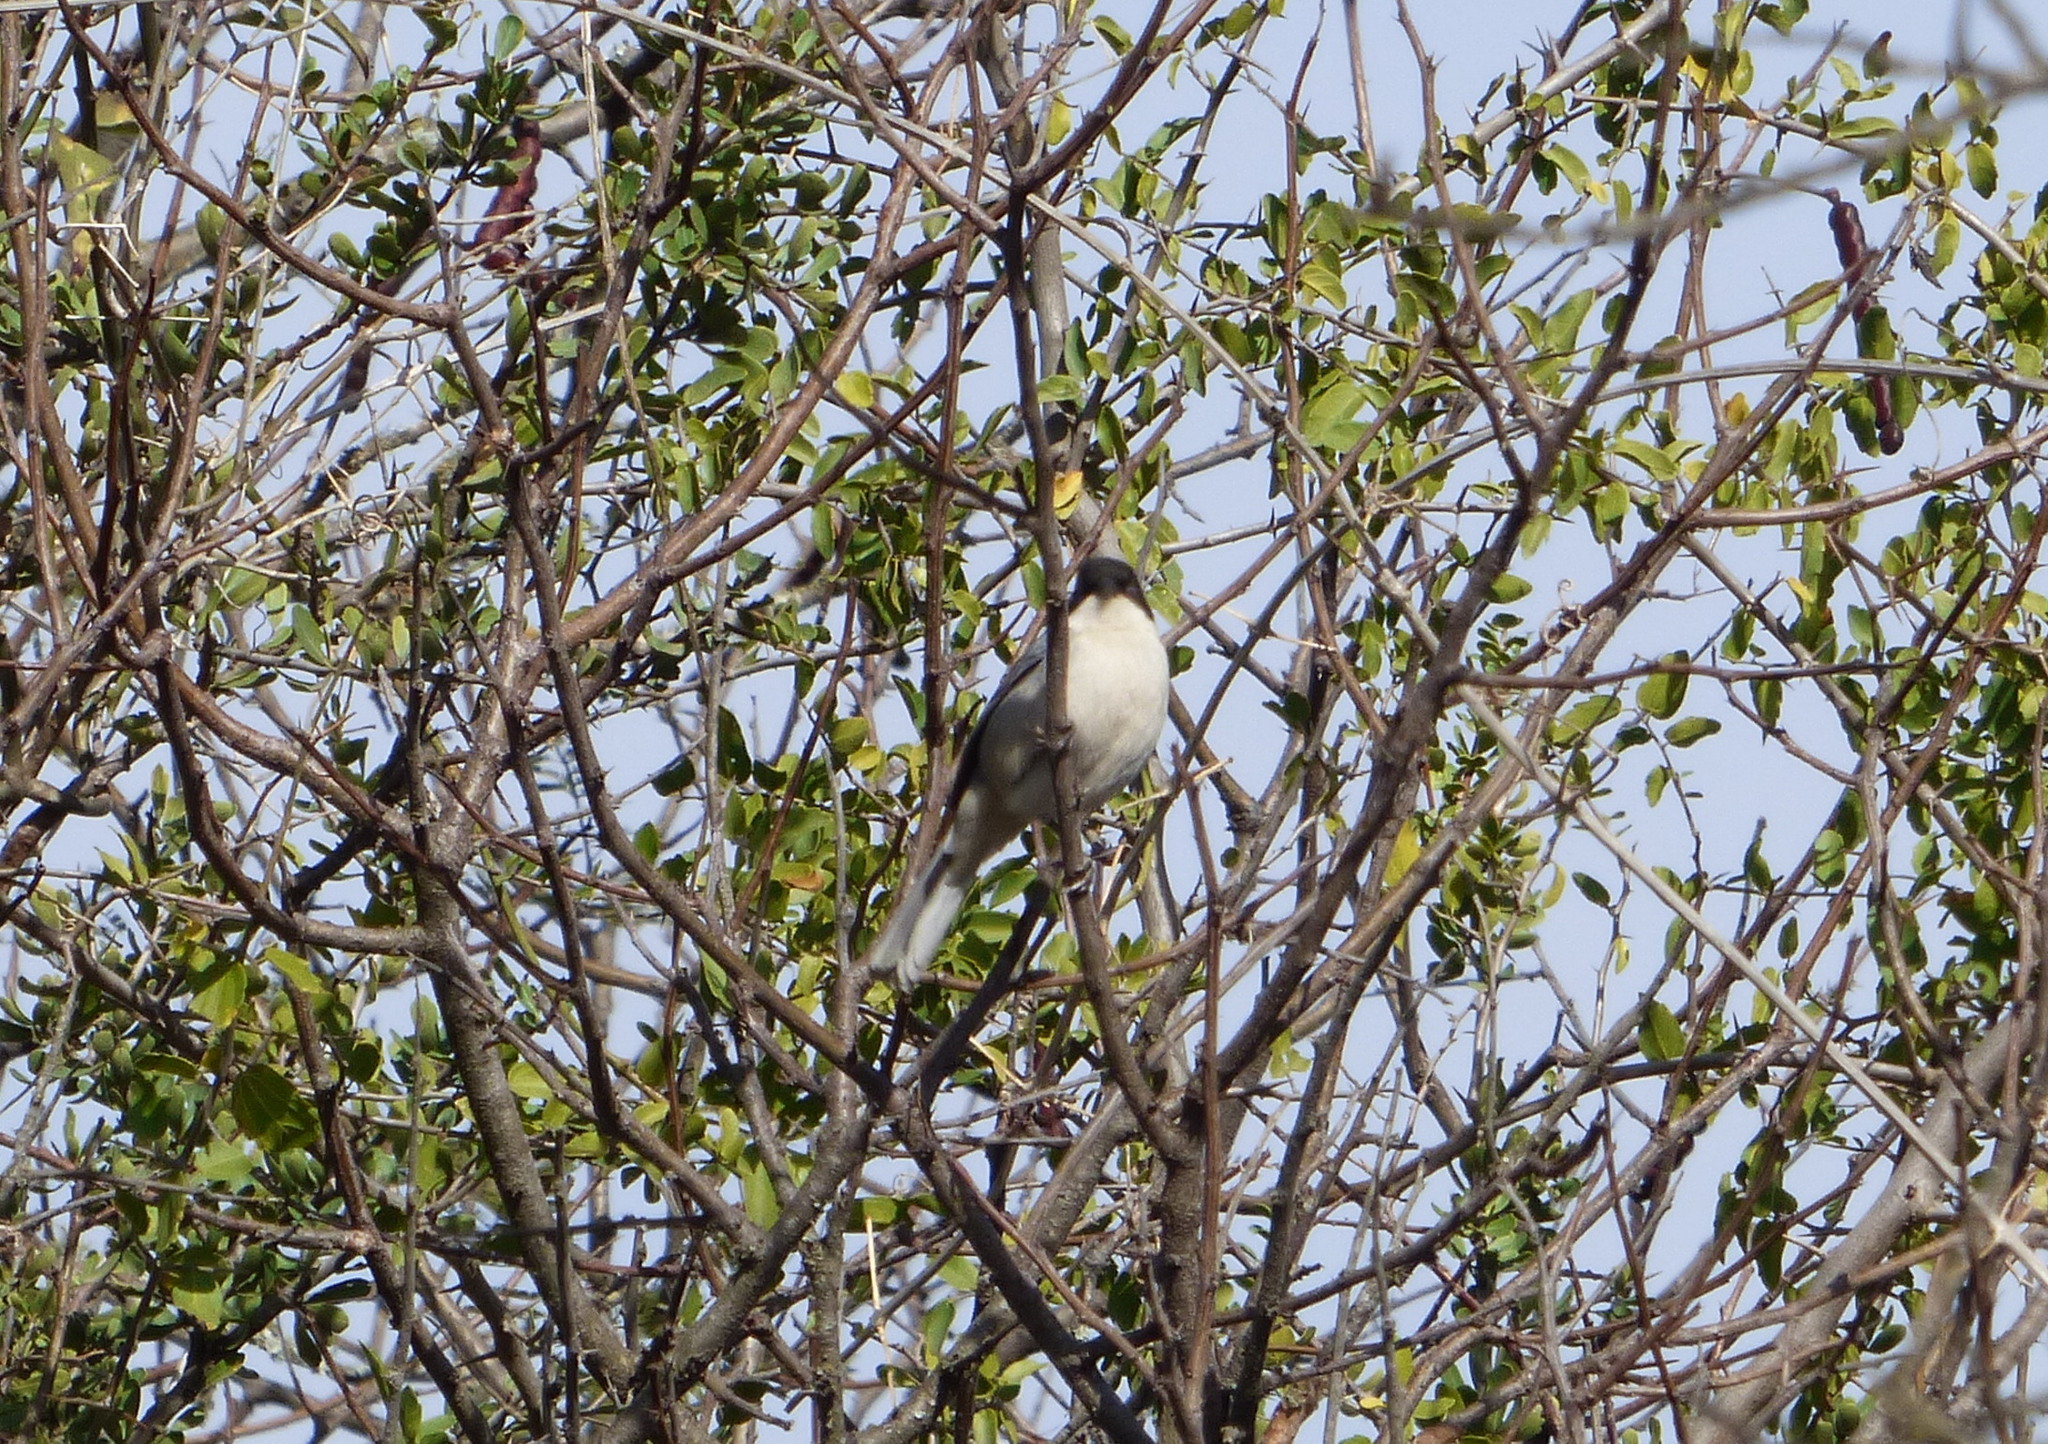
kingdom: Animalia
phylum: Chordata
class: Aves
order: Passeriformes
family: Thraupidae
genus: Microspingus
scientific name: Microspingus melanoleucus
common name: Black-capped warbling-finch
